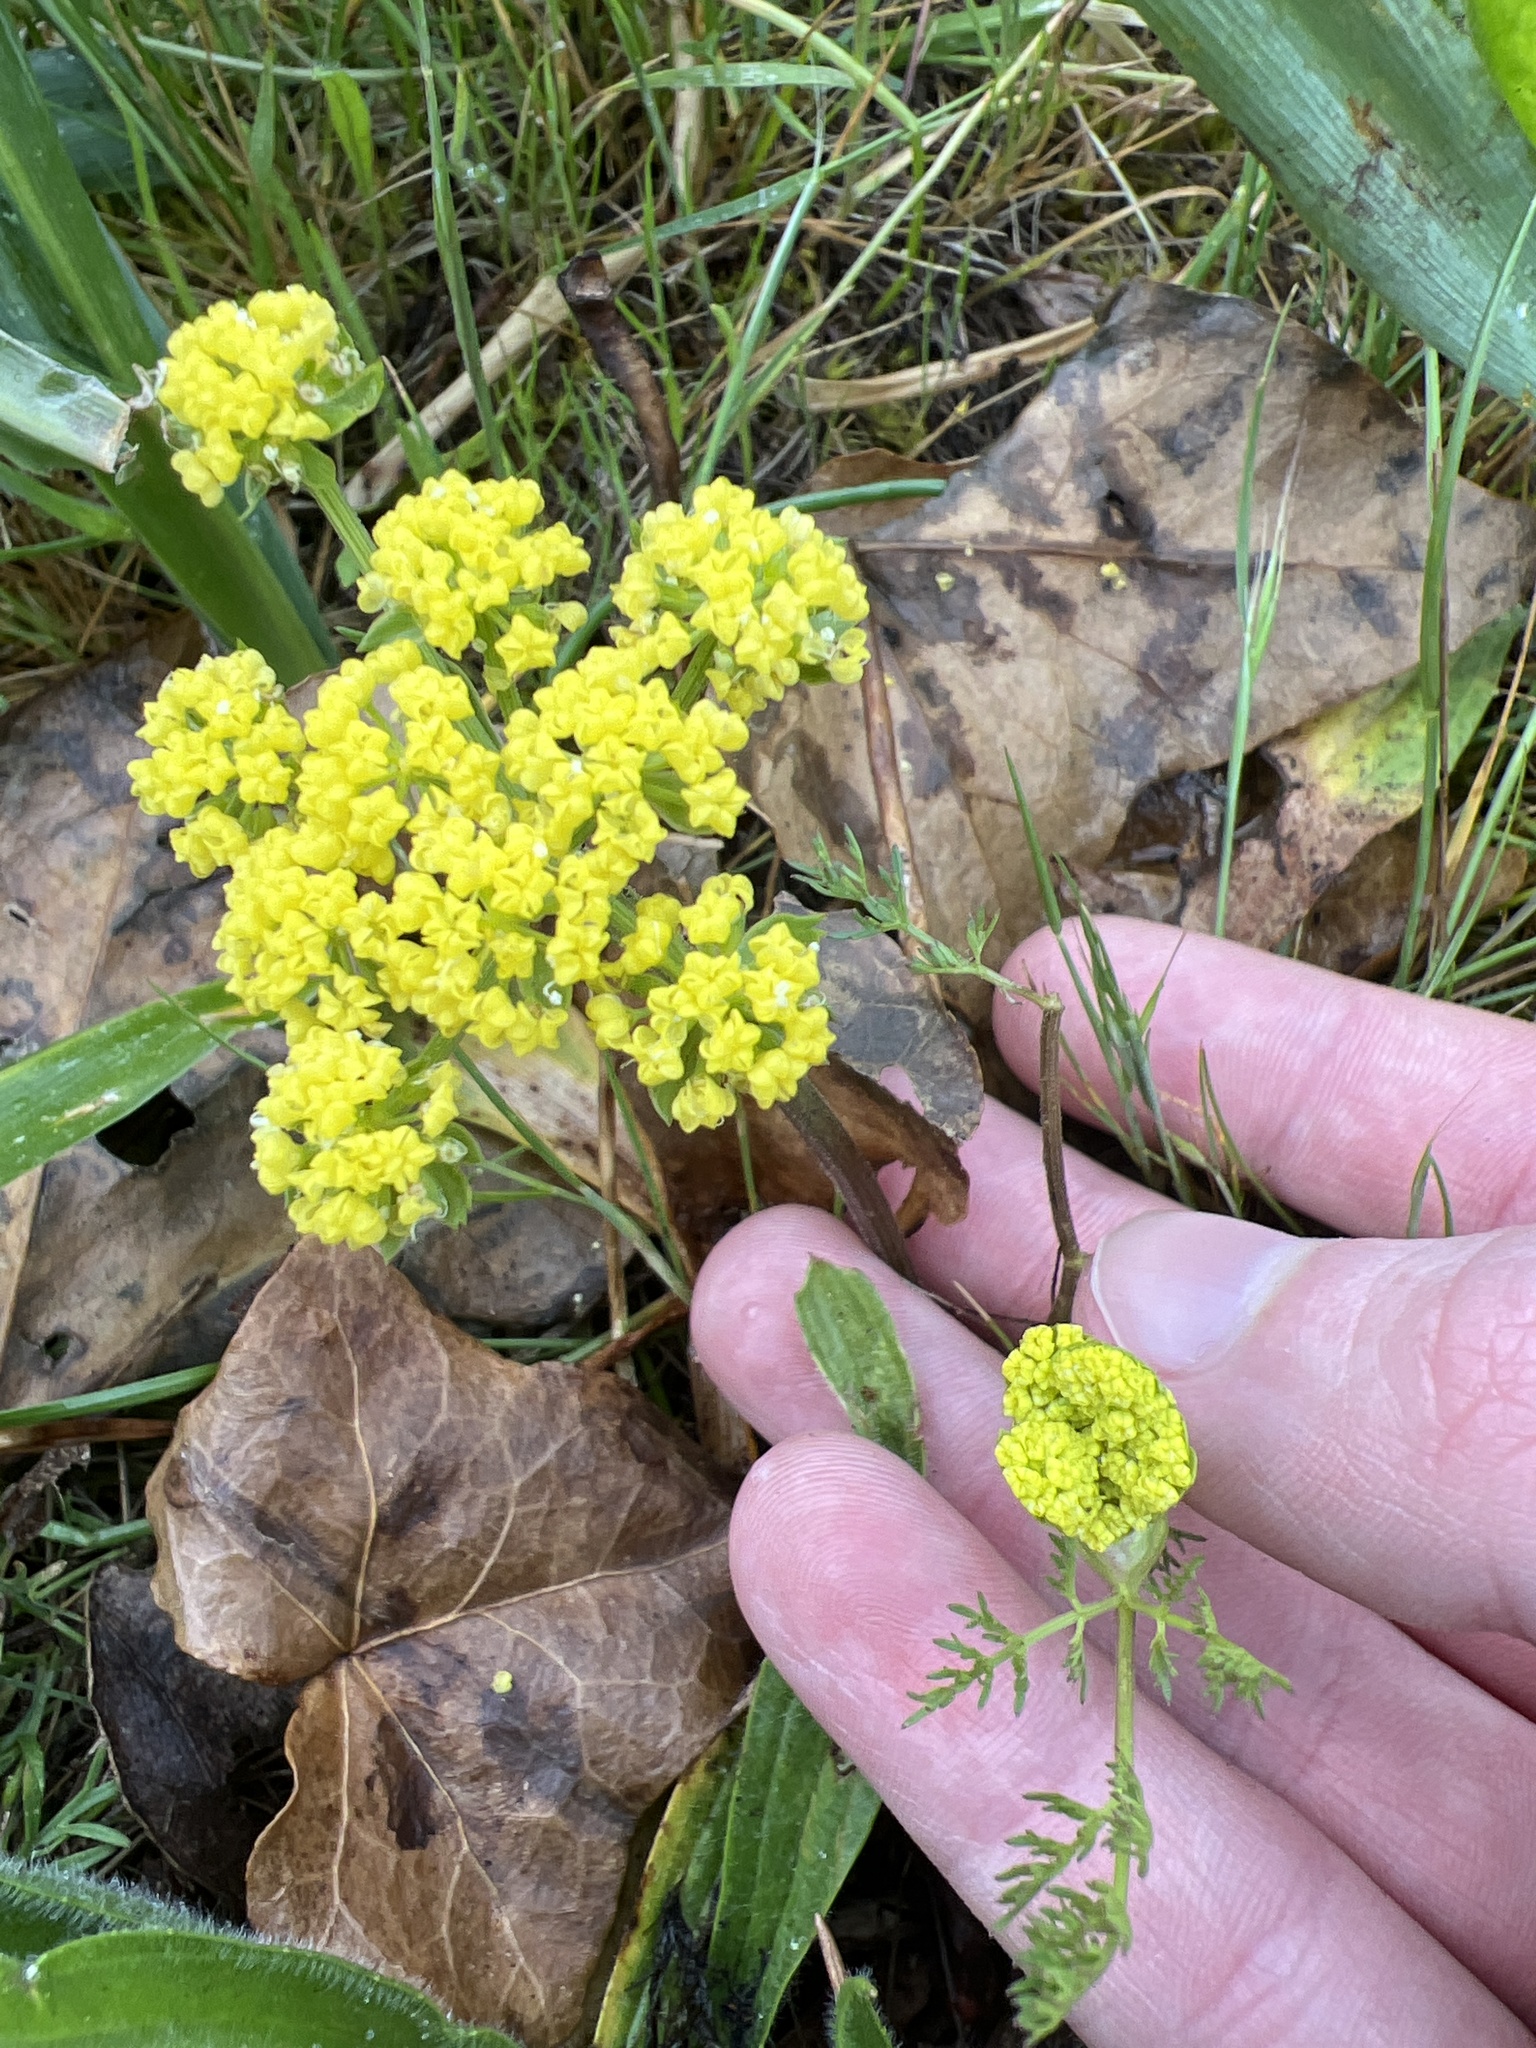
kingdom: Plantae
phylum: Tracheophyta
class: Magnoliopsida
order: Apiales
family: Apiaceae
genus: Lomatium
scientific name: Lomatium utriculatum
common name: Fine-leaf desert-parsley
